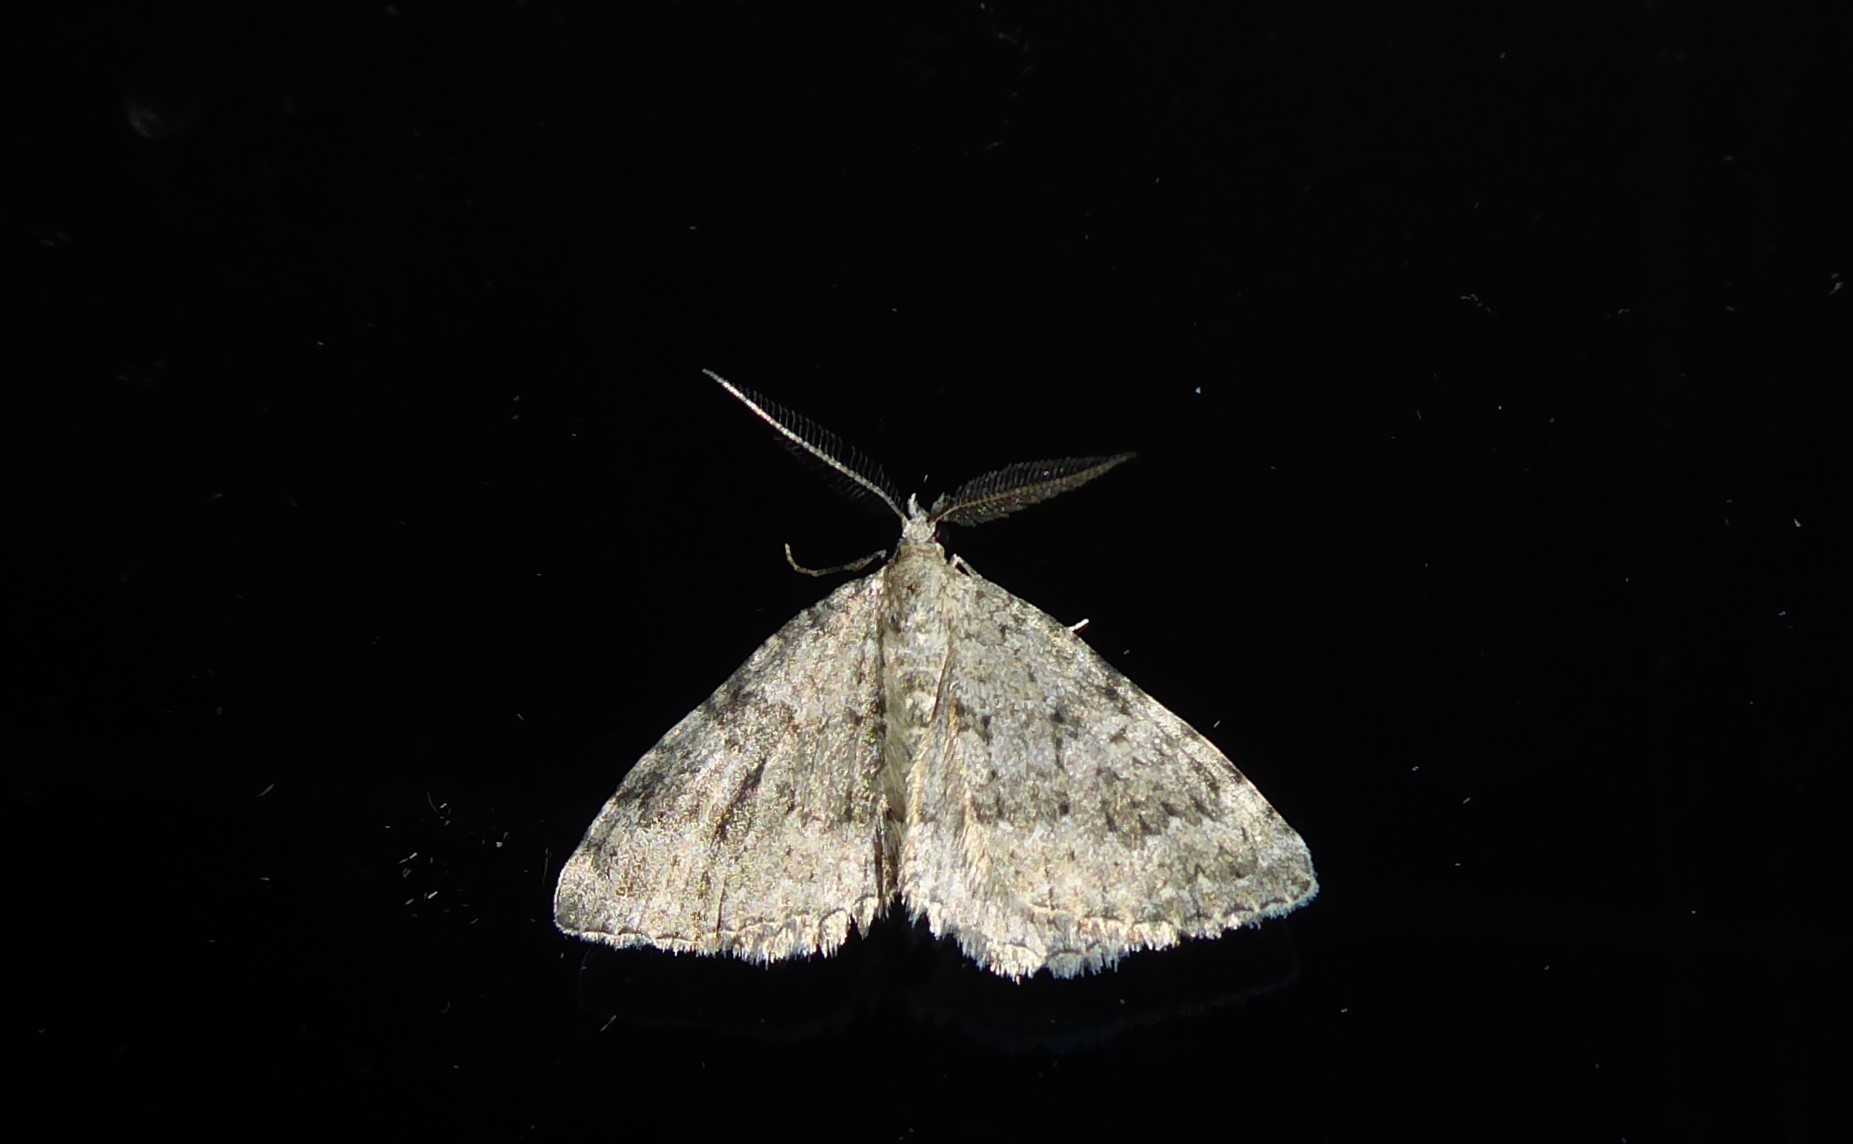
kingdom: Animalia
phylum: Arthropoda
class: Insecta
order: Lepidoptera
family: Geometridae
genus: Helastia
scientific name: Helastia corcularia
